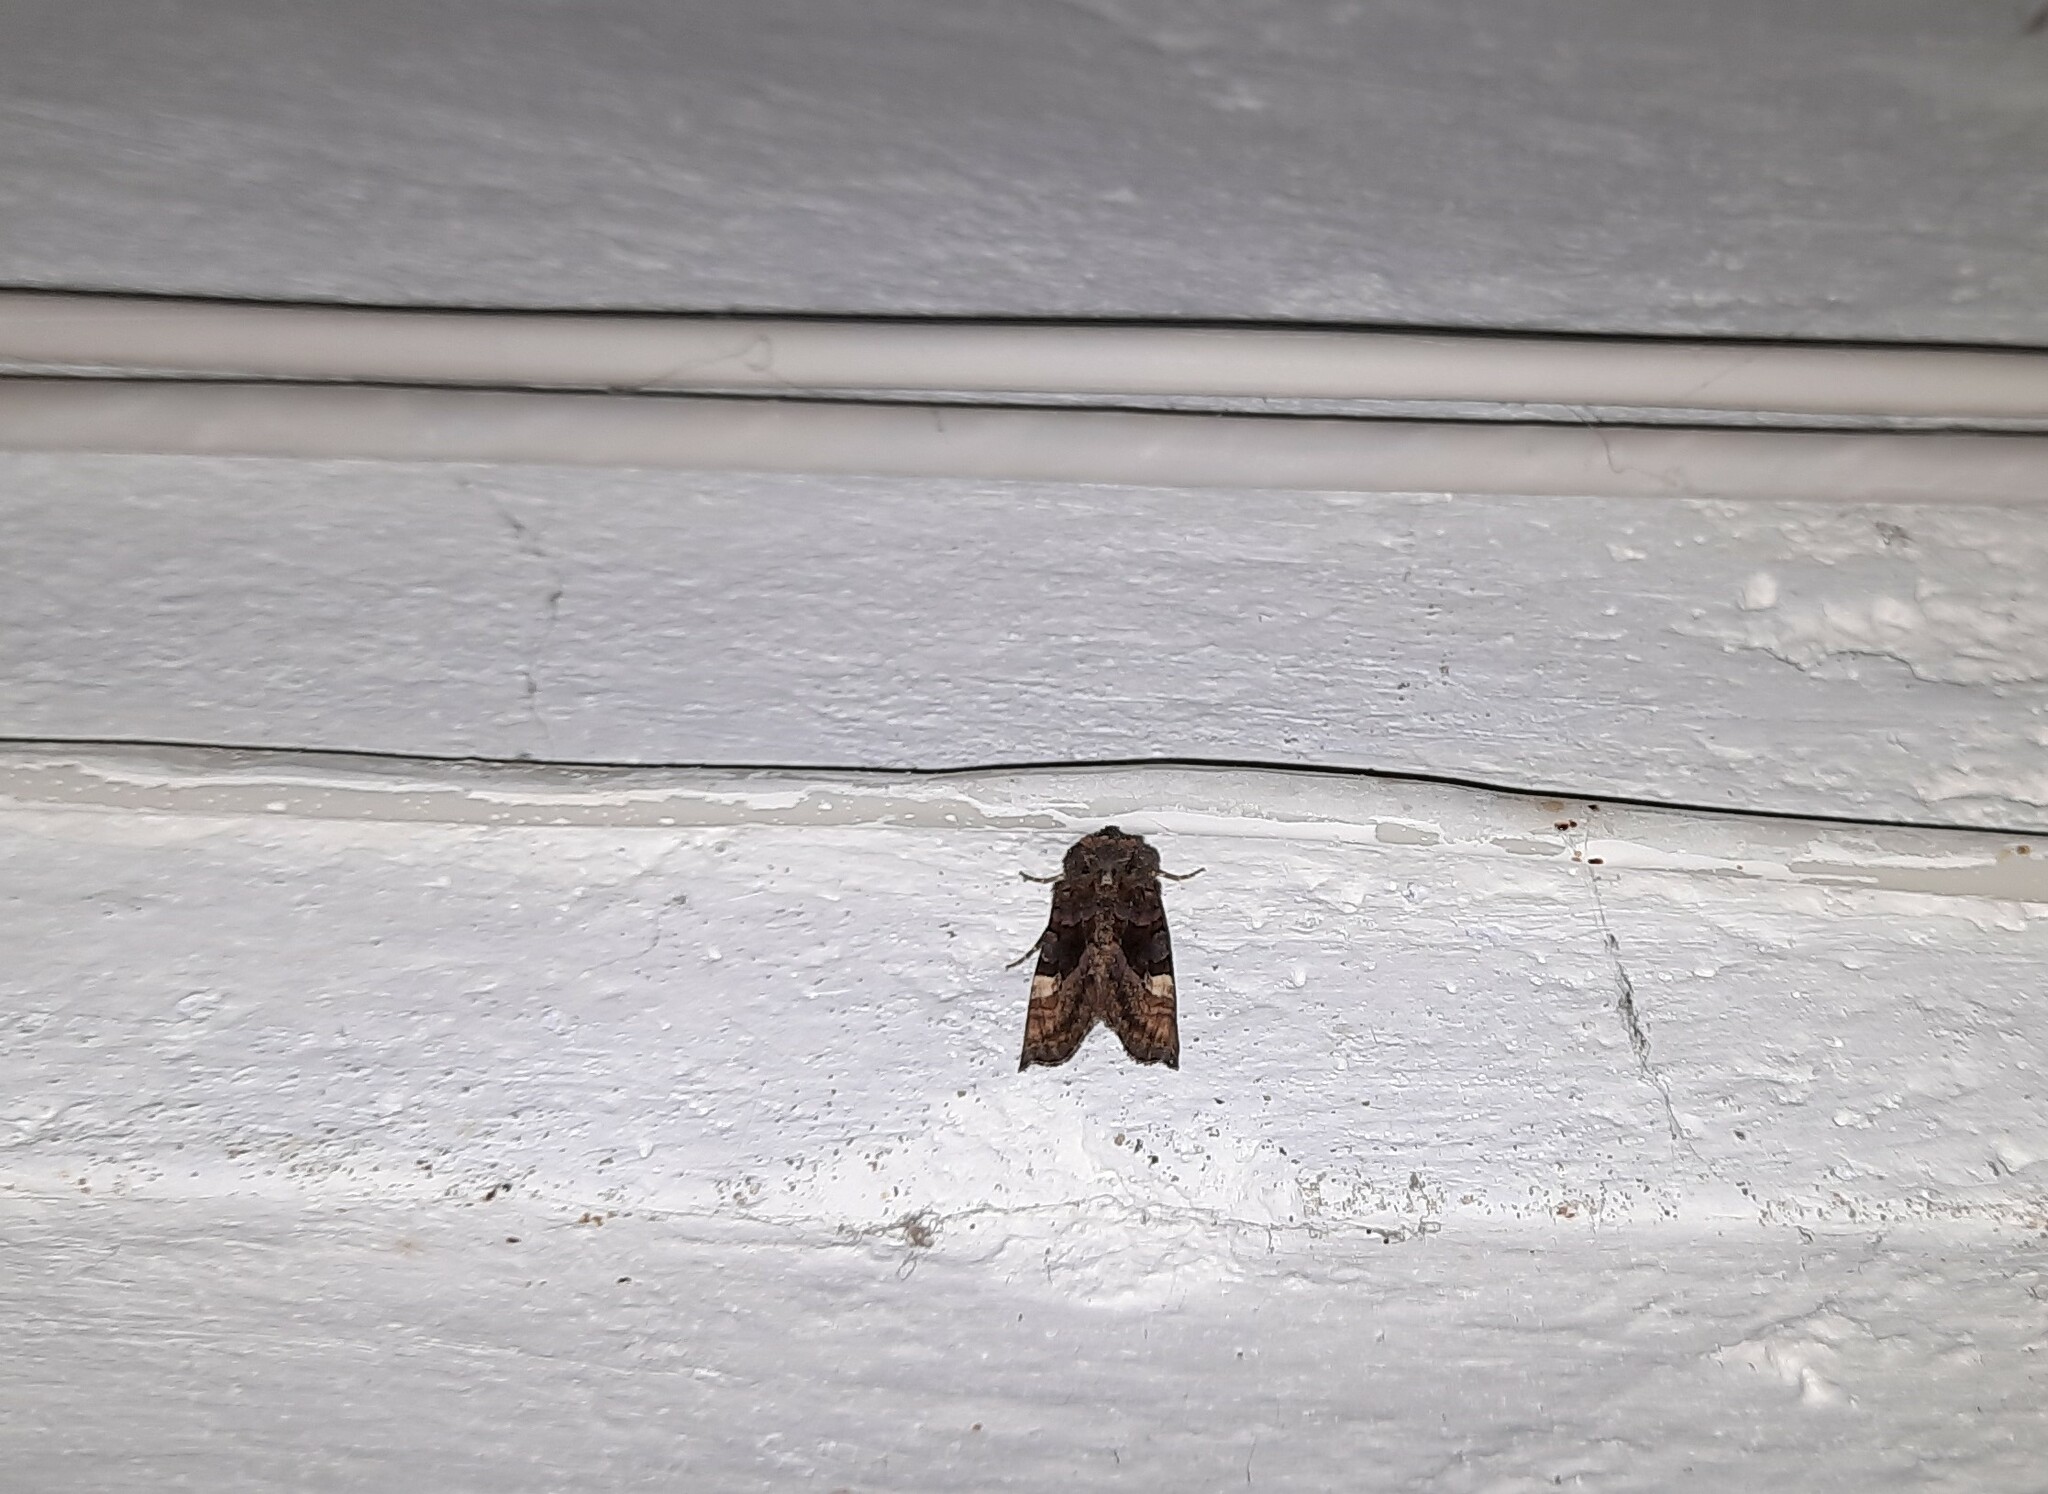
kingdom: Animalia
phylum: Arthropoda
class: Insecta
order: Lepidoptera
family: Noctuidae
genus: Euplexia
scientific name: Euplexia lucipara
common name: Small angle shades
